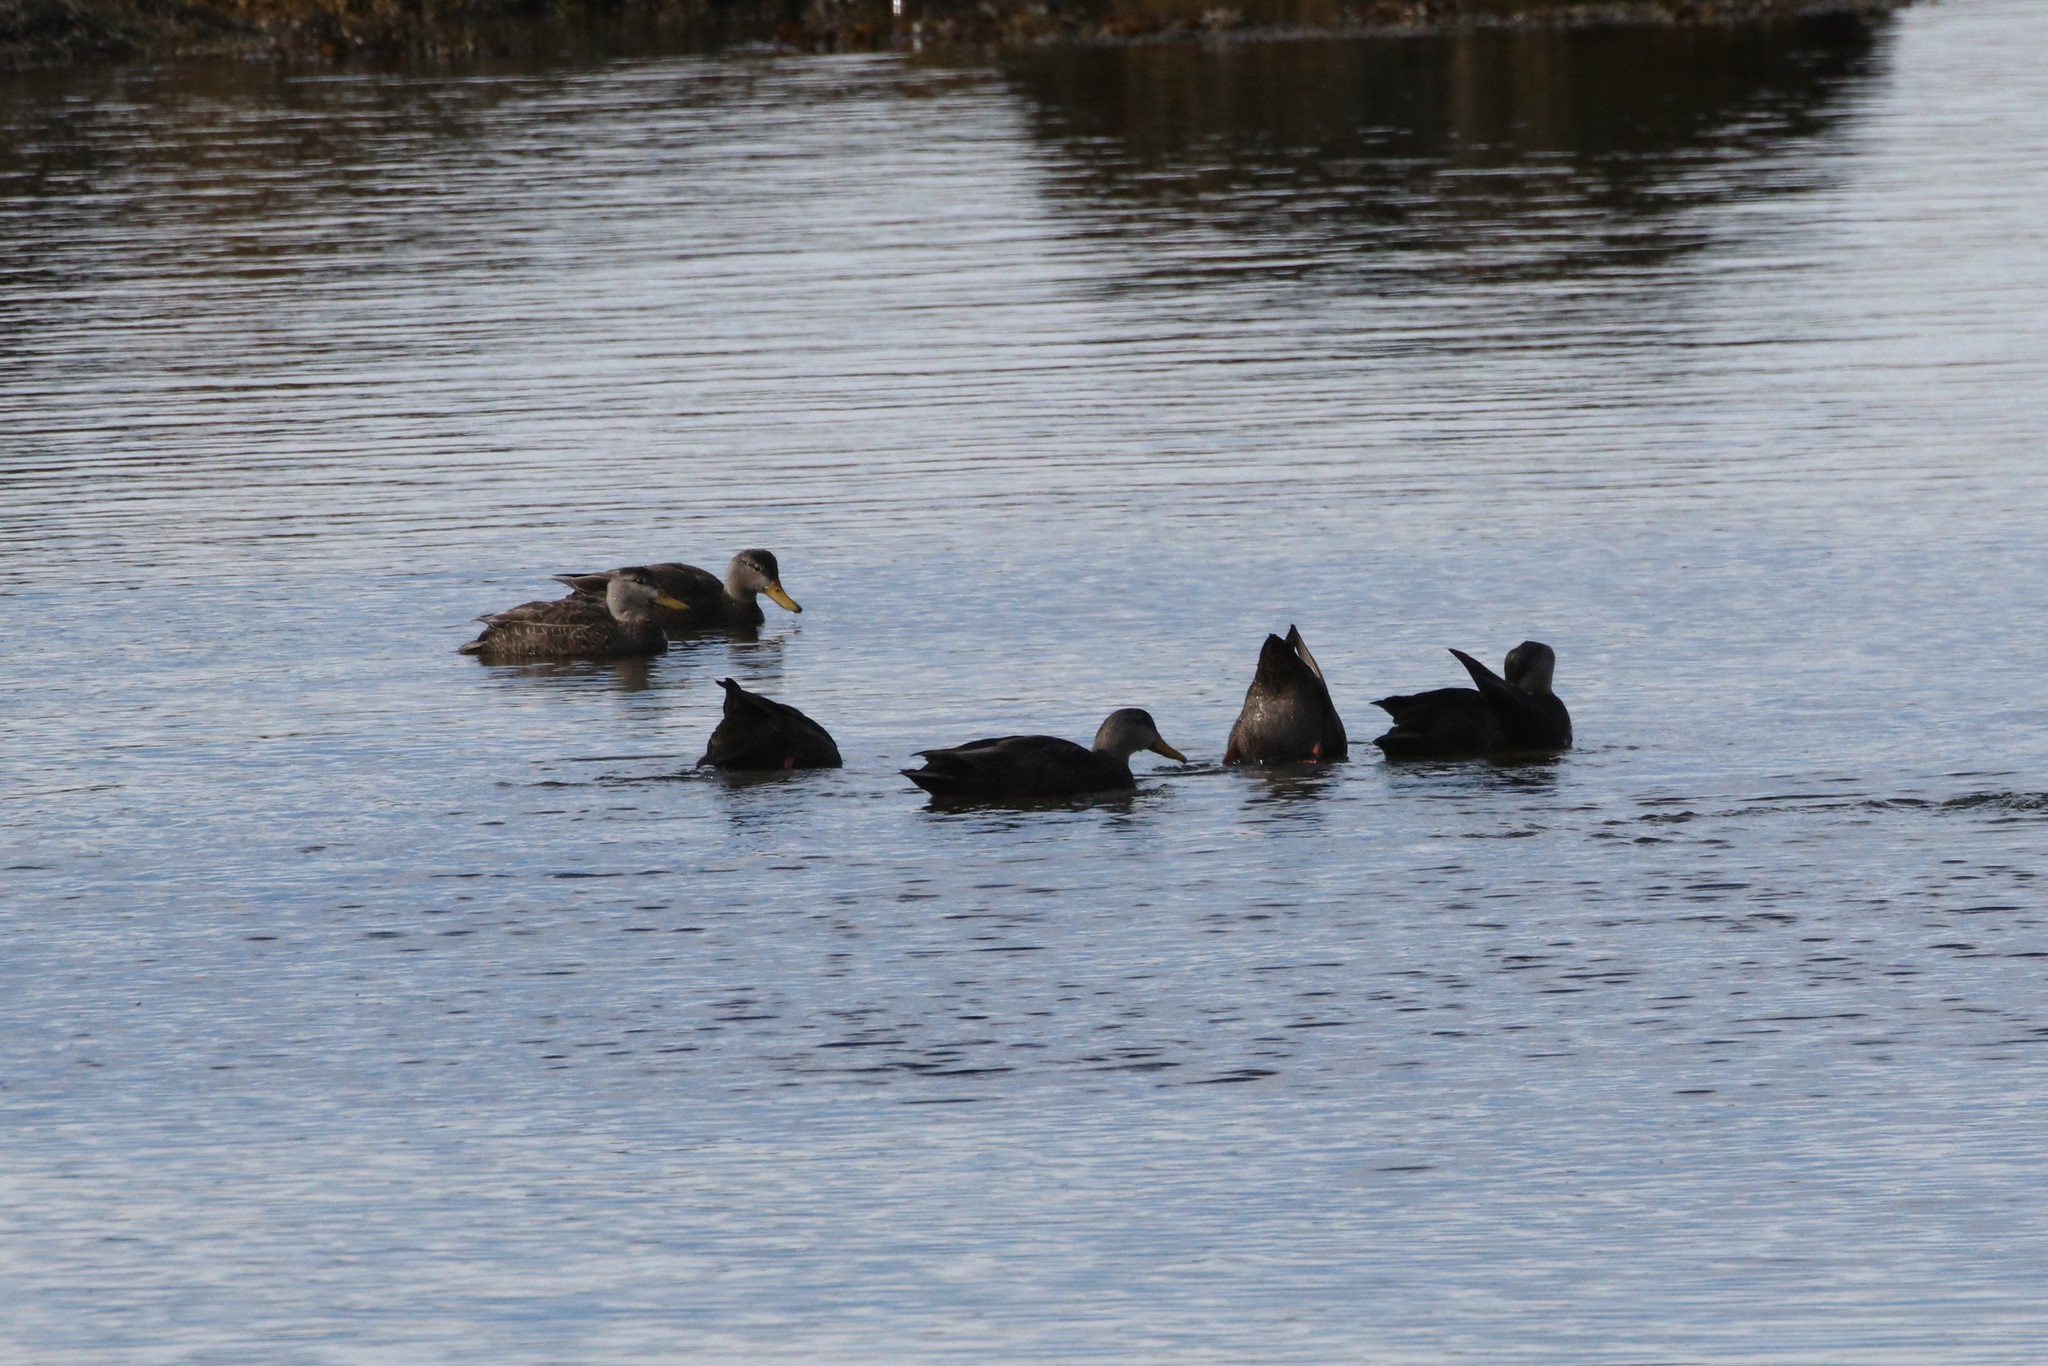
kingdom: Animalia
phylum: Chordata
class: Aves
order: Anseriformes
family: Anatidae
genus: Anas
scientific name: Anas rubripes
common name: American black duck
